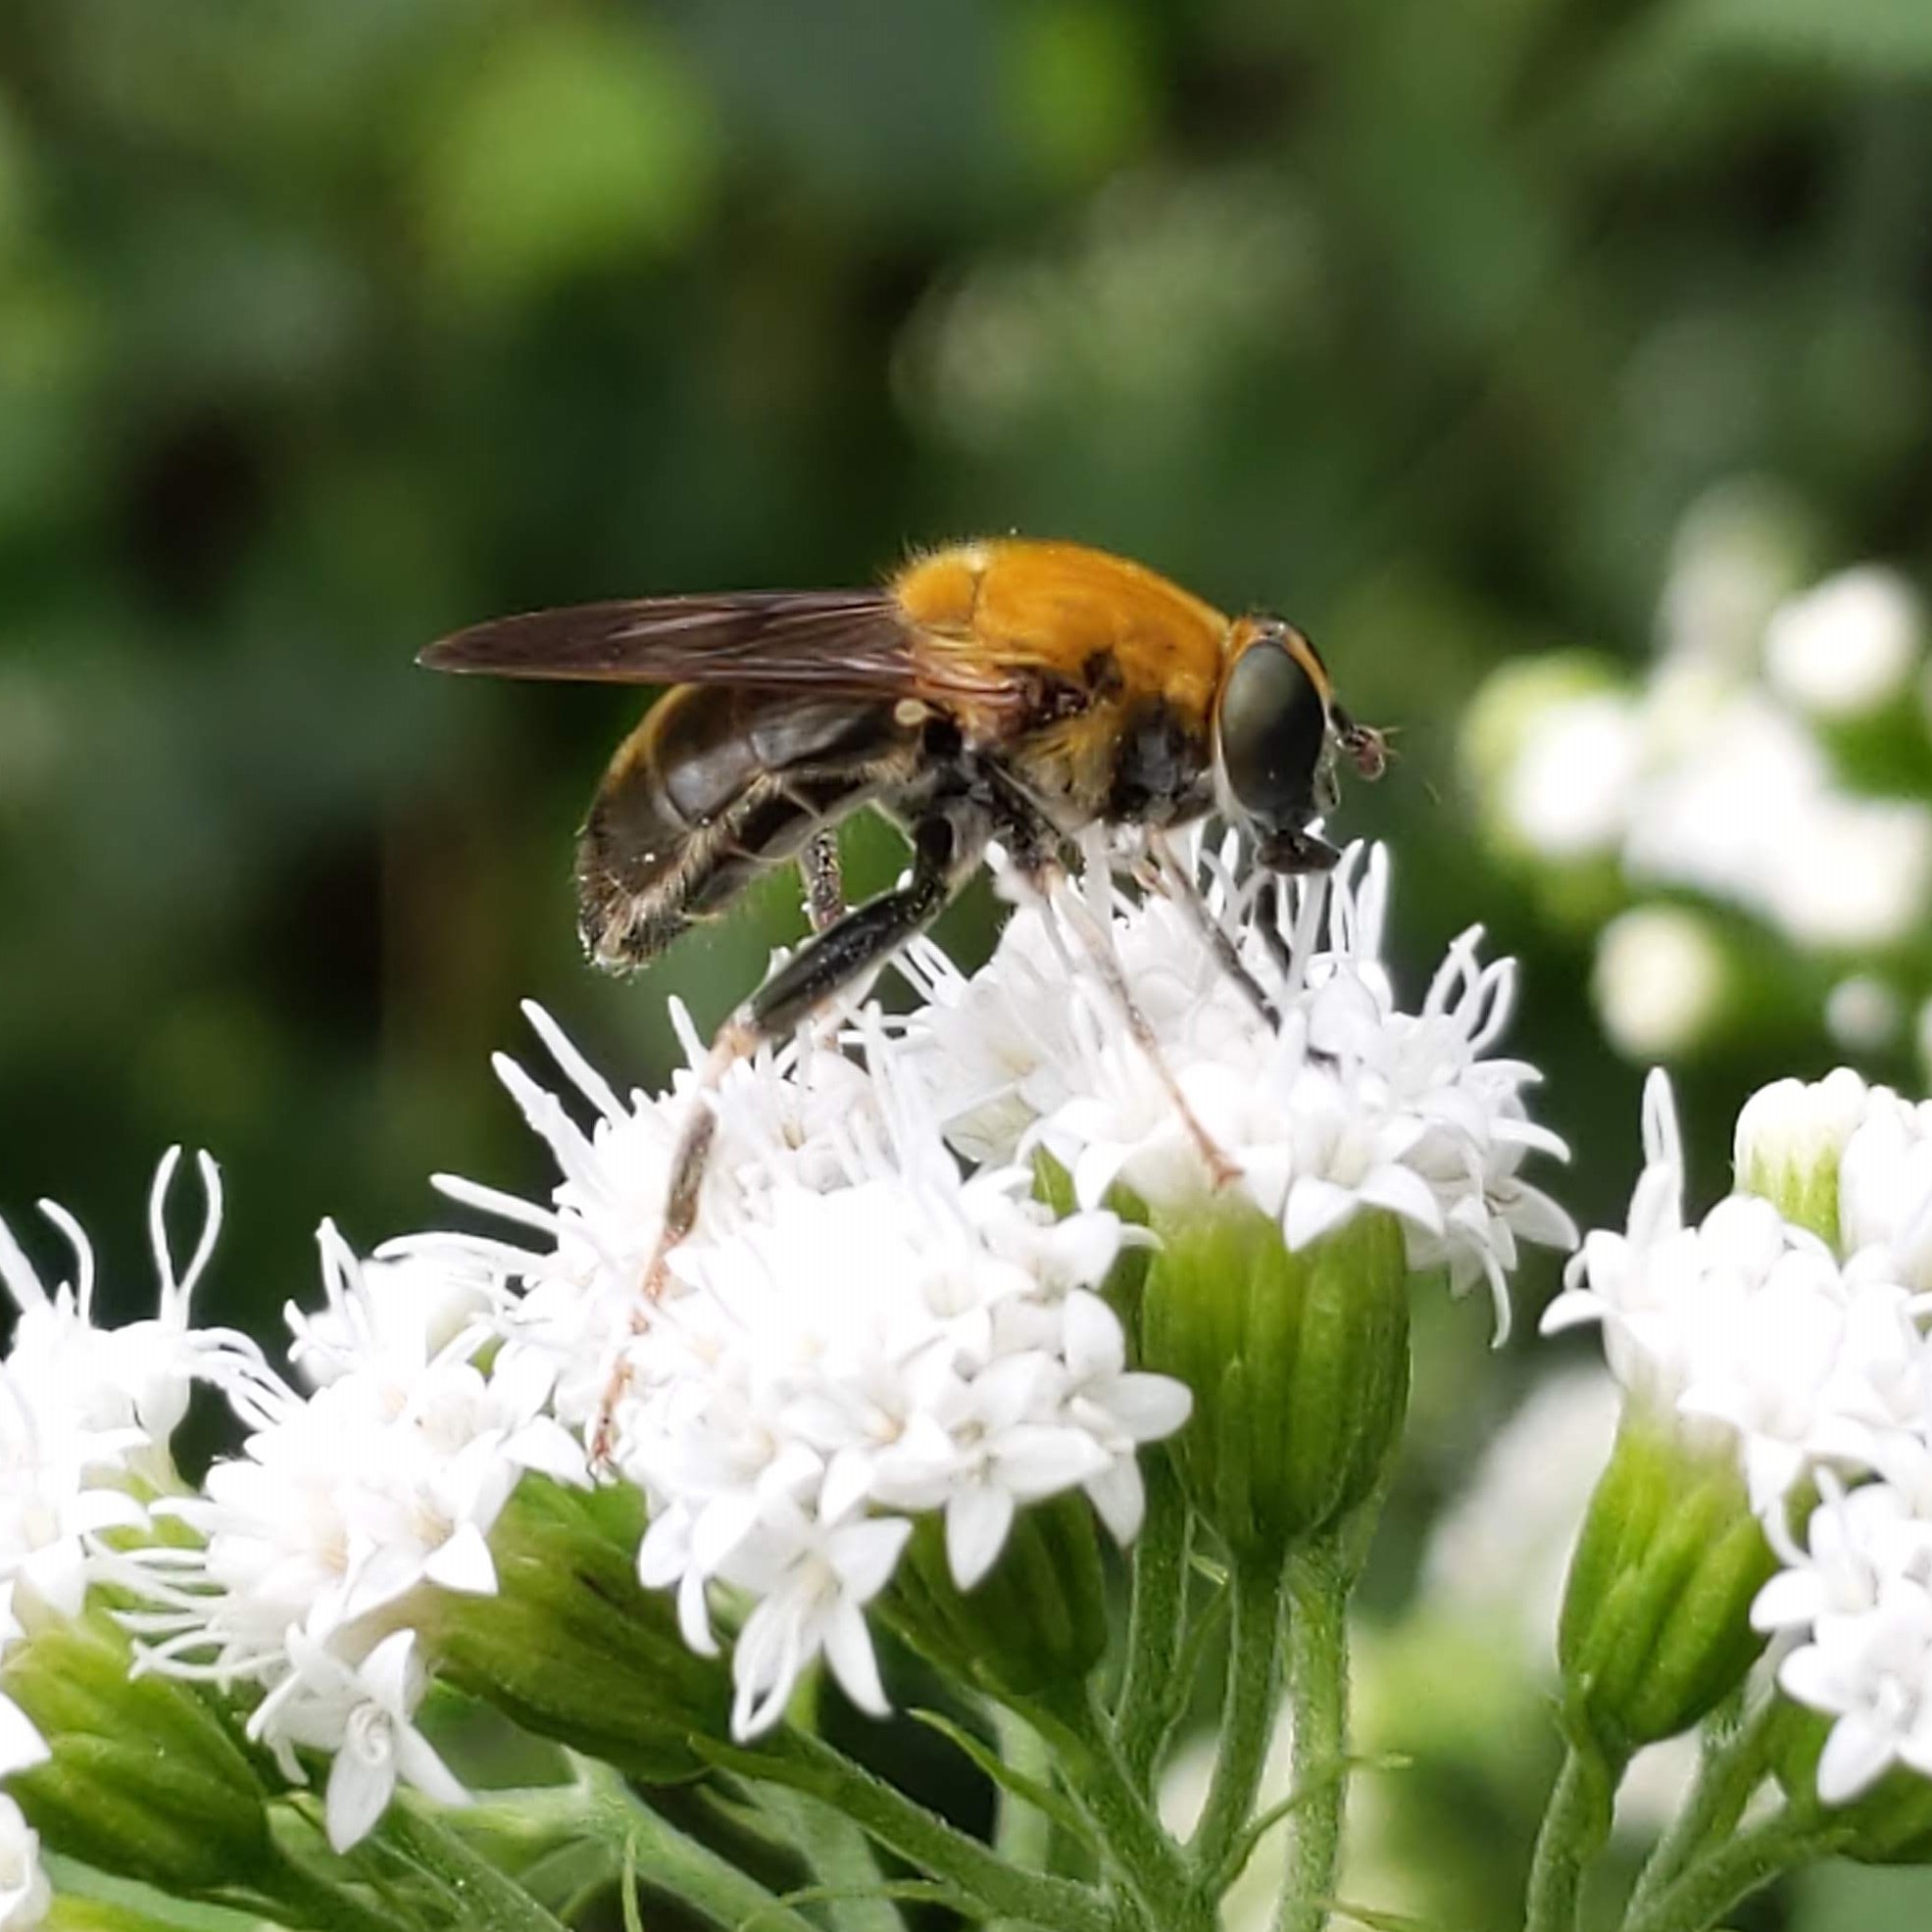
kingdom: Animalia
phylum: Arthropoda
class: Insecta
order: Diptera
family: Syrphidae
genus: Pterallastes
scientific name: Pterallastes thoracicus
